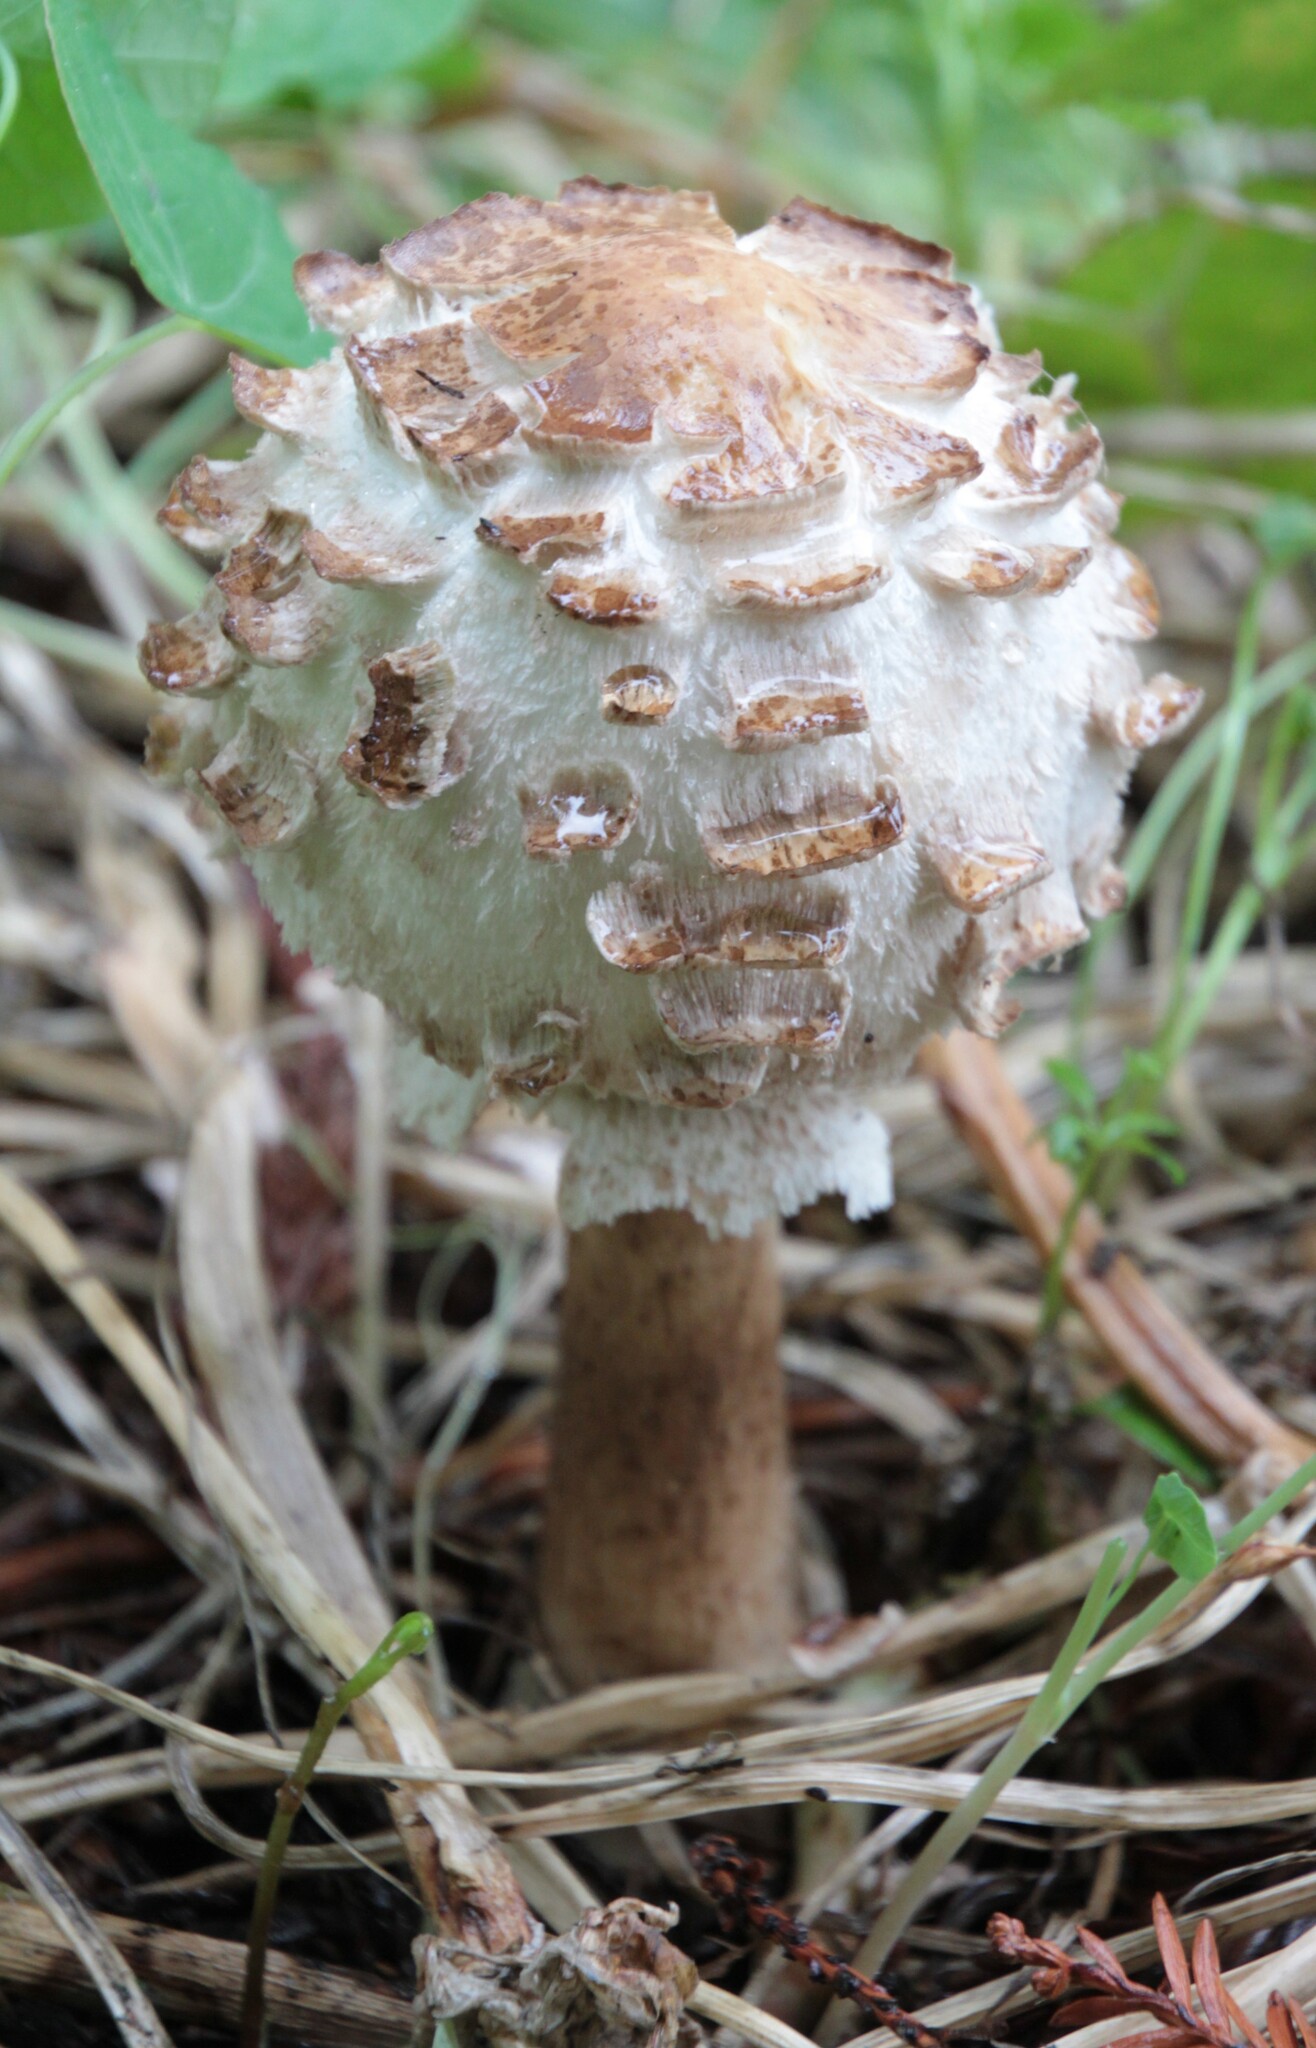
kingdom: Fungi
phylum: Basidiomycota
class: Agaricomycetes
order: Agaricales
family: Agaricaceae
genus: Chlorophyllum
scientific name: Chlorophyllum molybdites
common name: False parasol
